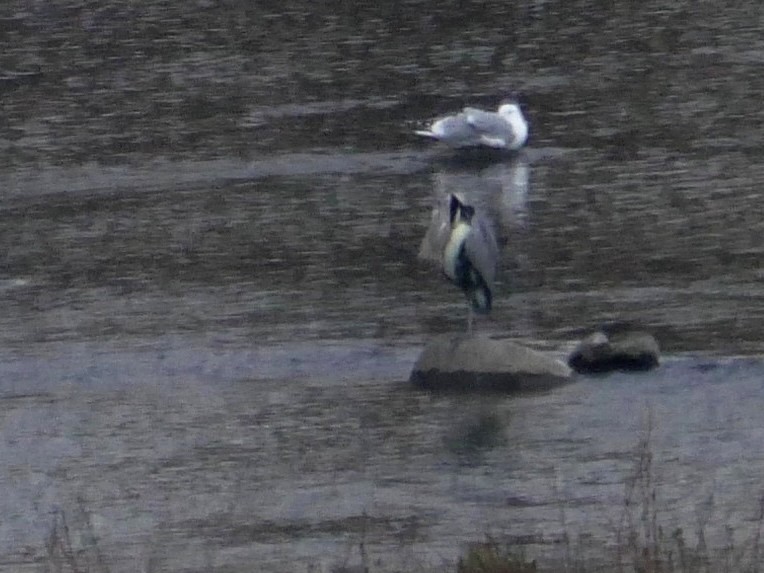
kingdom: Animalia
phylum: Chordata
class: Aves
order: Pelecaniformes
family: Ardeidae
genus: Ardea
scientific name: Ardea cinerea
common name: Grey heron
